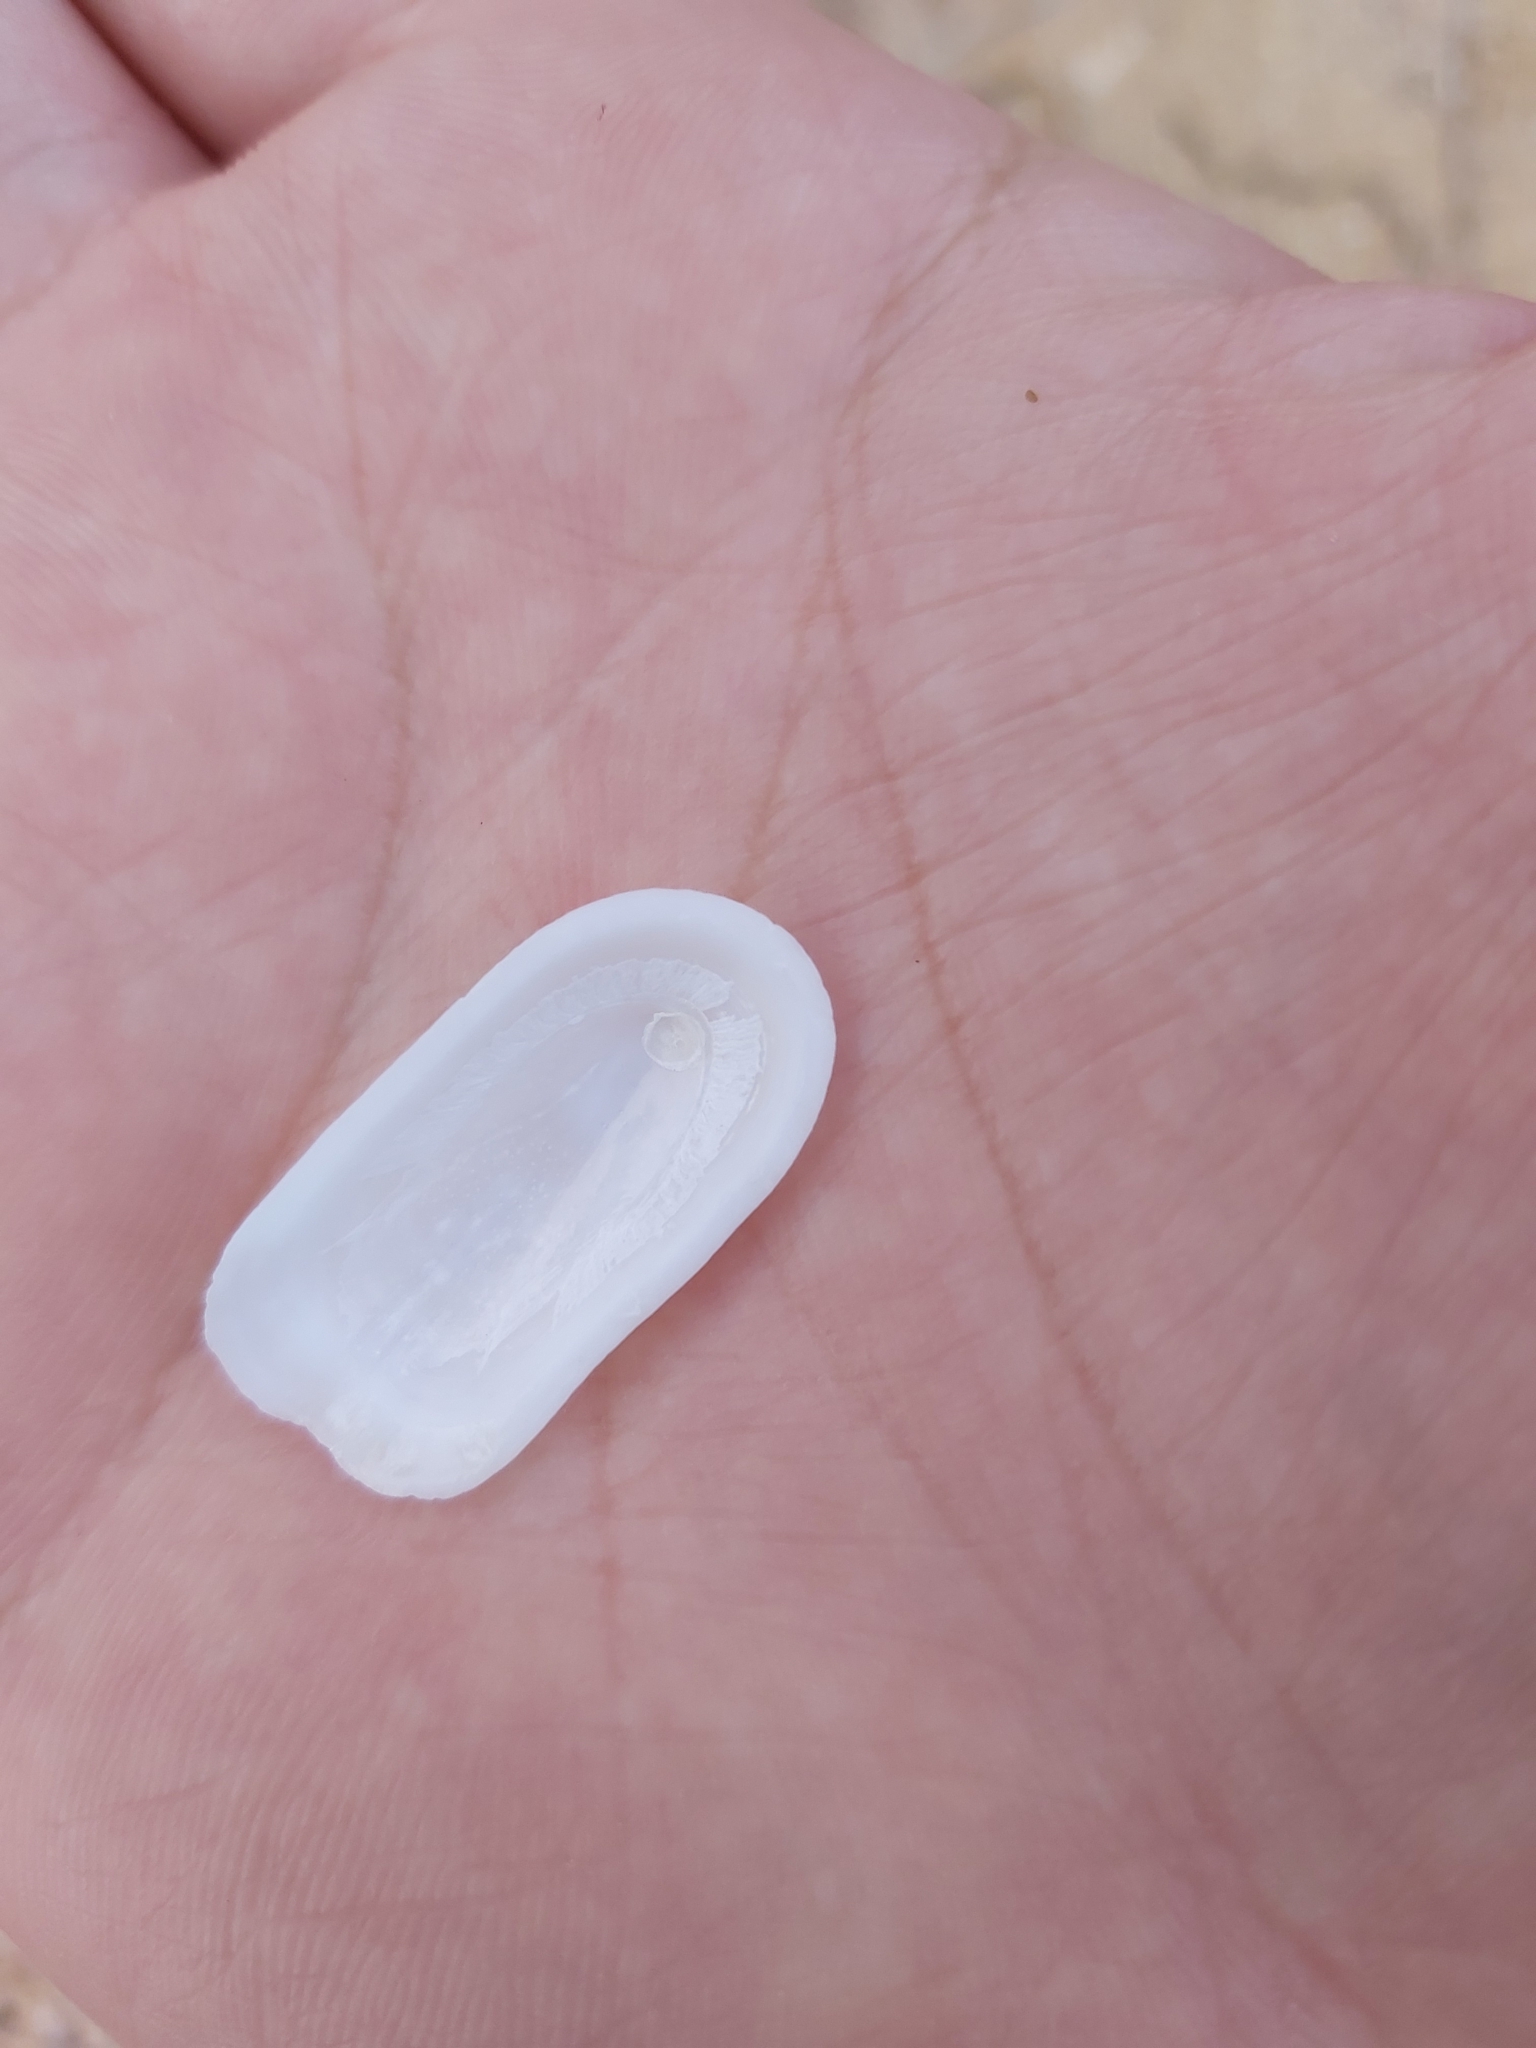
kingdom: Animalia
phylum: Mollusca
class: Gastropoda
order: Lepetellida
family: Fissurellidae
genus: Scutus
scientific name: Scutus antipodes
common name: Duckbill shell
